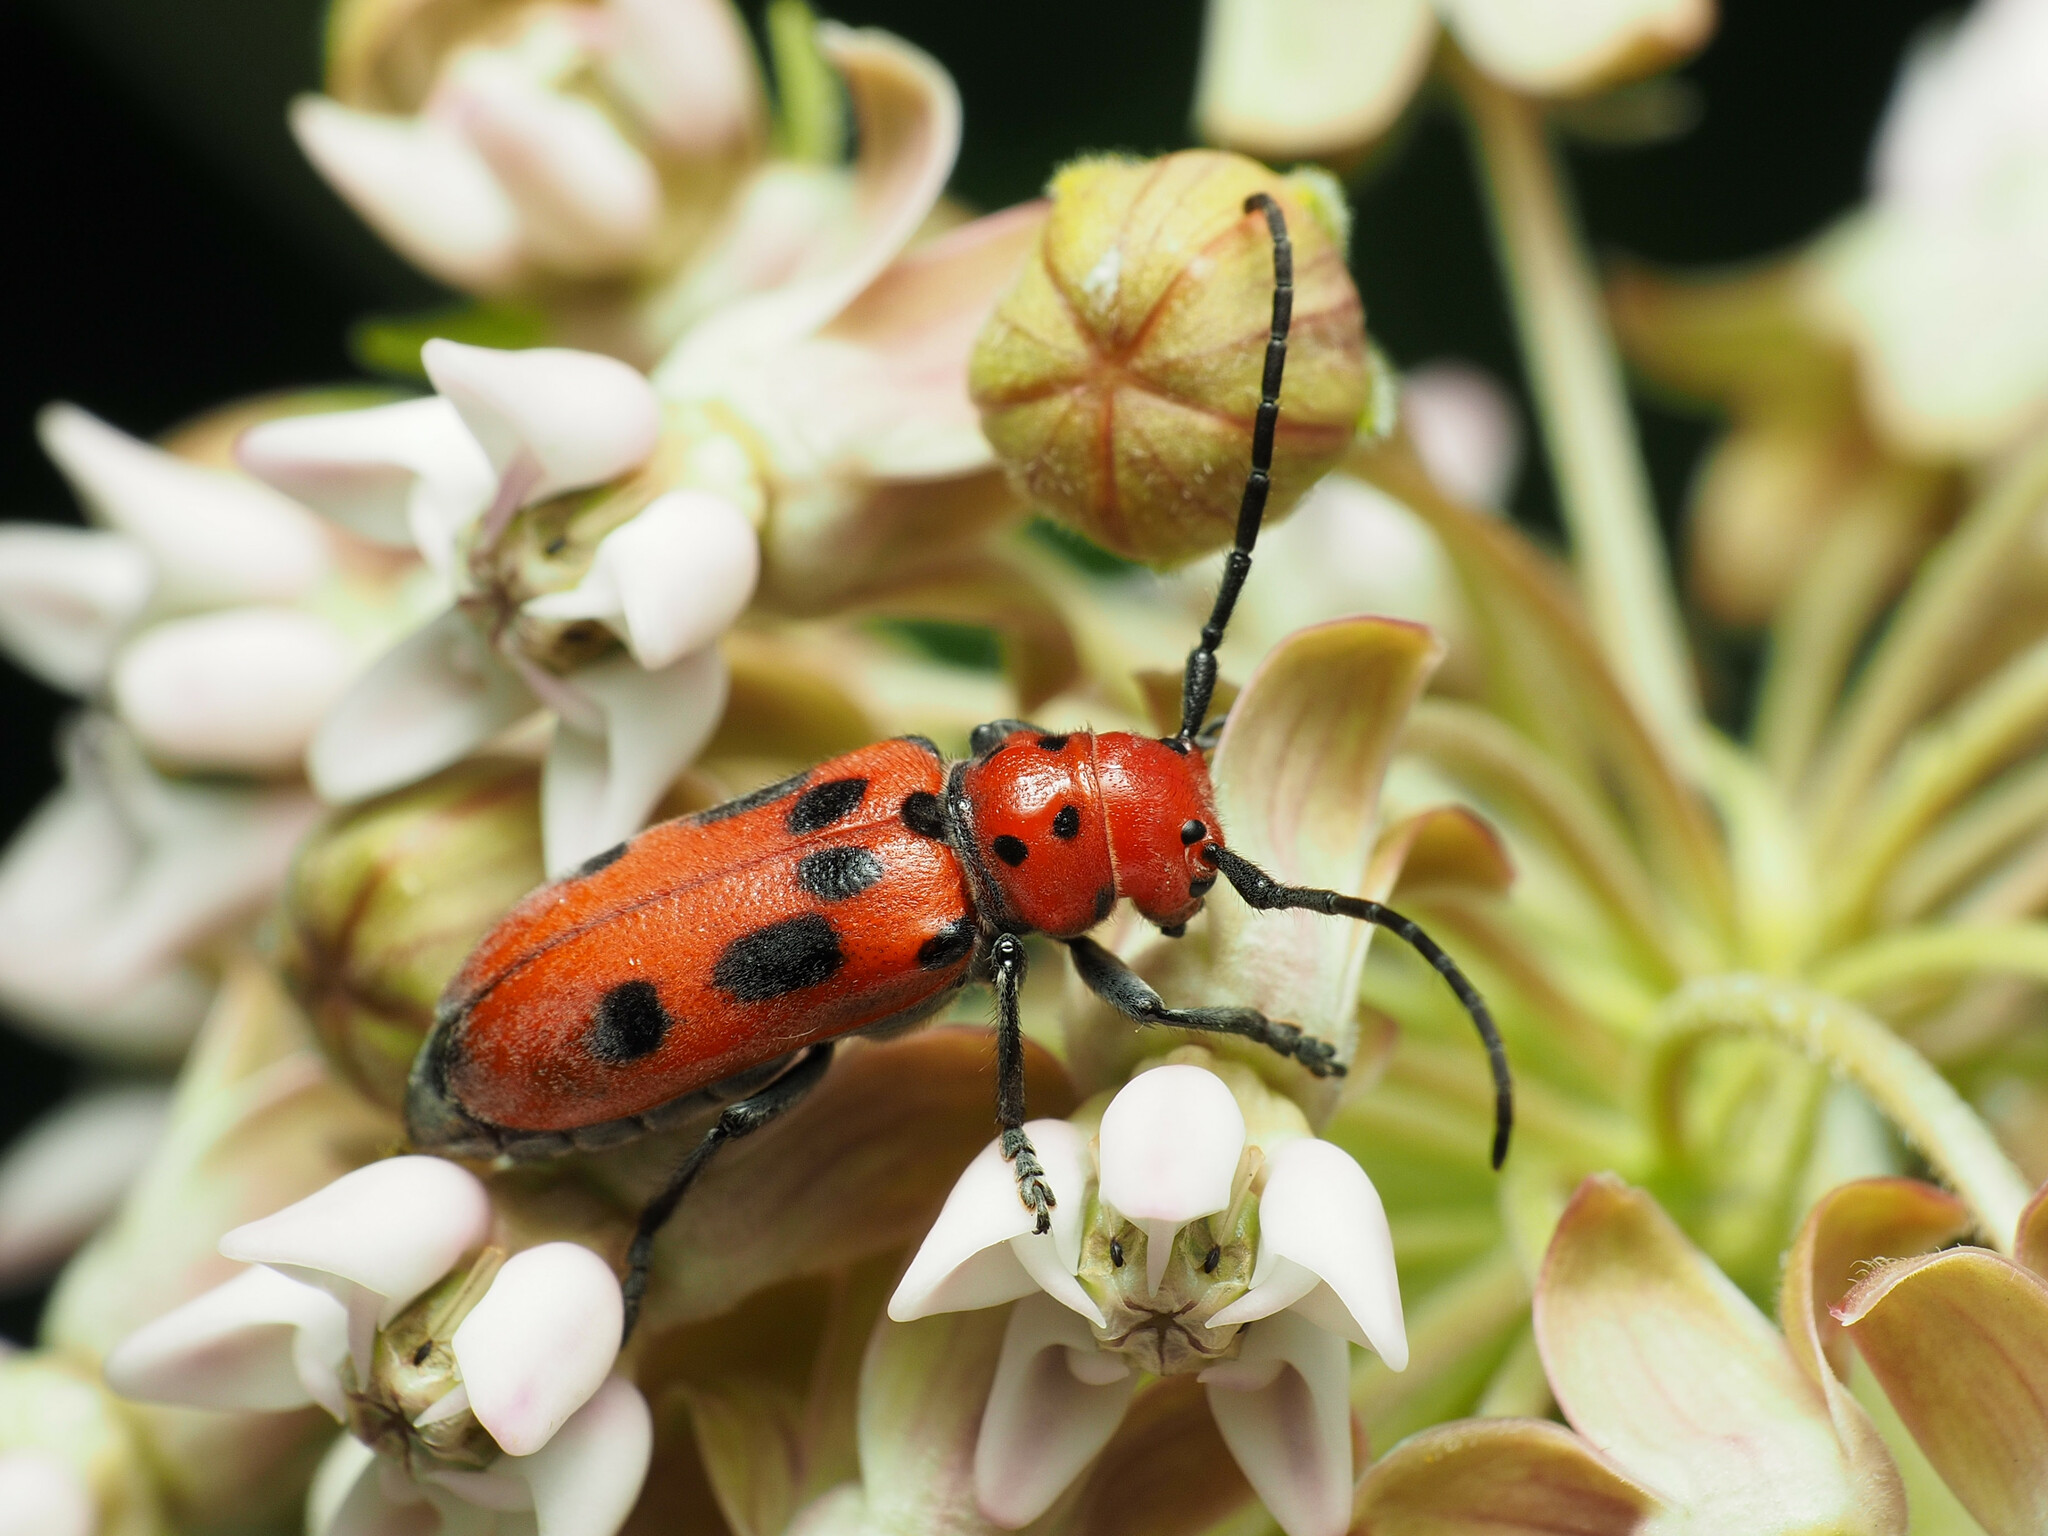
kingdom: Animalia
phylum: Arthropoda
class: Insecta
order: Coleoptera
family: Cerambycidae
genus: Tetraopes
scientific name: Tetraopes tetrophthalmus
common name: Red milkweed beetle
